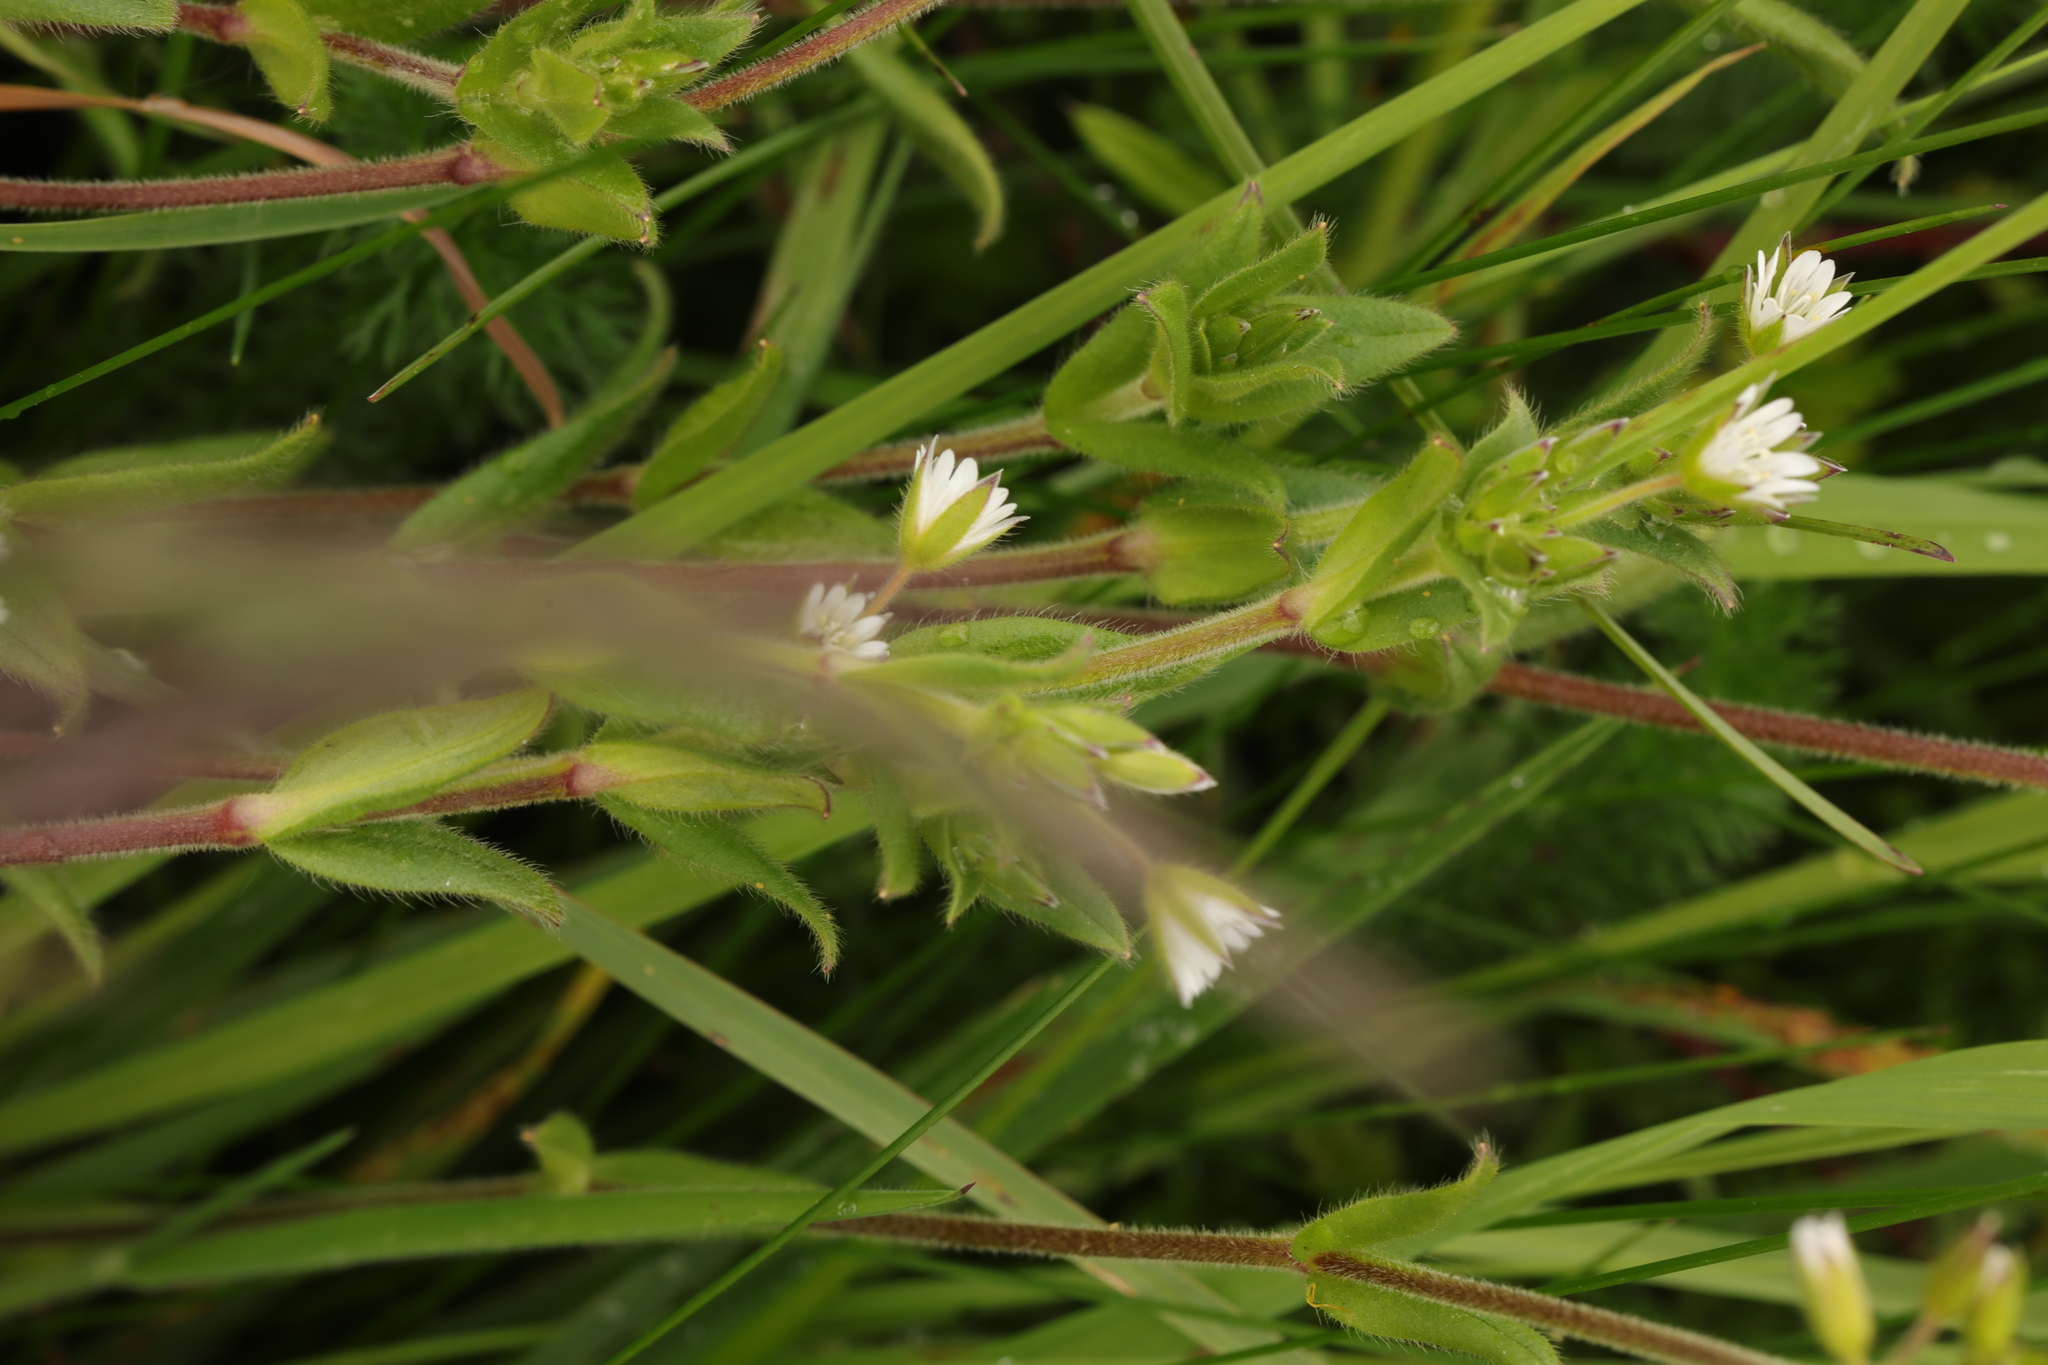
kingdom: Plantae
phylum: Tracheophyta
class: Magnoliopsida
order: Caryophyllales
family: Caryophyllaceae
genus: Cerastium
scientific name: Cerastium fontanum
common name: Common mouse-ear
